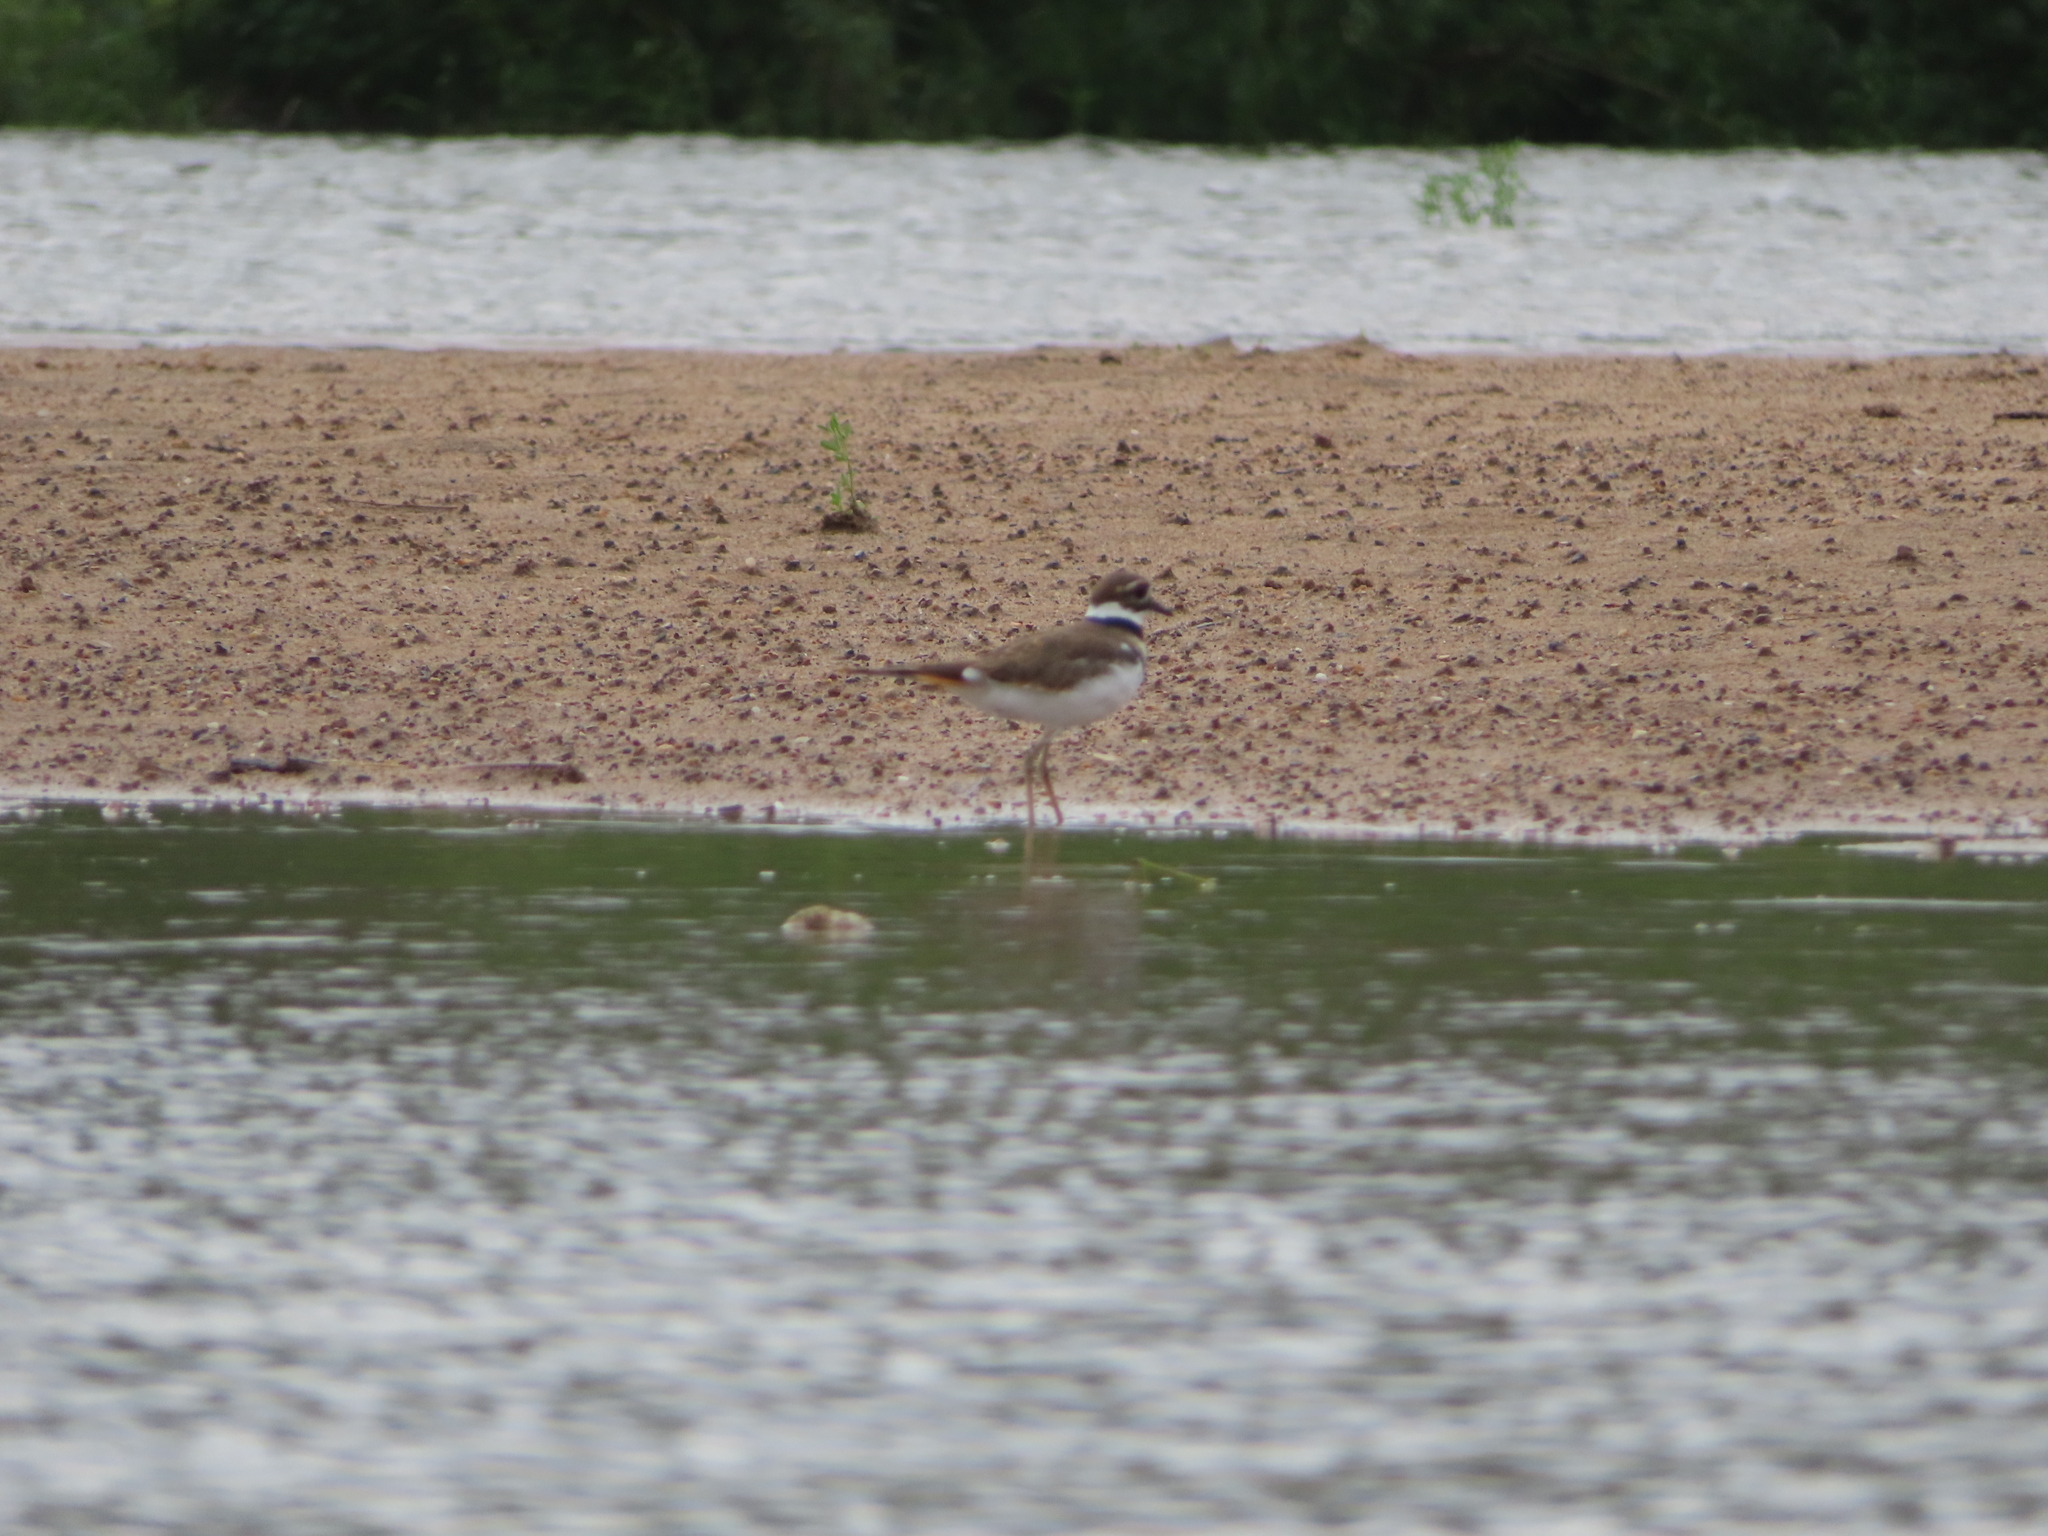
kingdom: Animalia
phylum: Chordata
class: Aves
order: Charadriiformes
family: Charadriidae
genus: Charadrius
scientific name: Charadrius vociferus
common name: Killdeer
